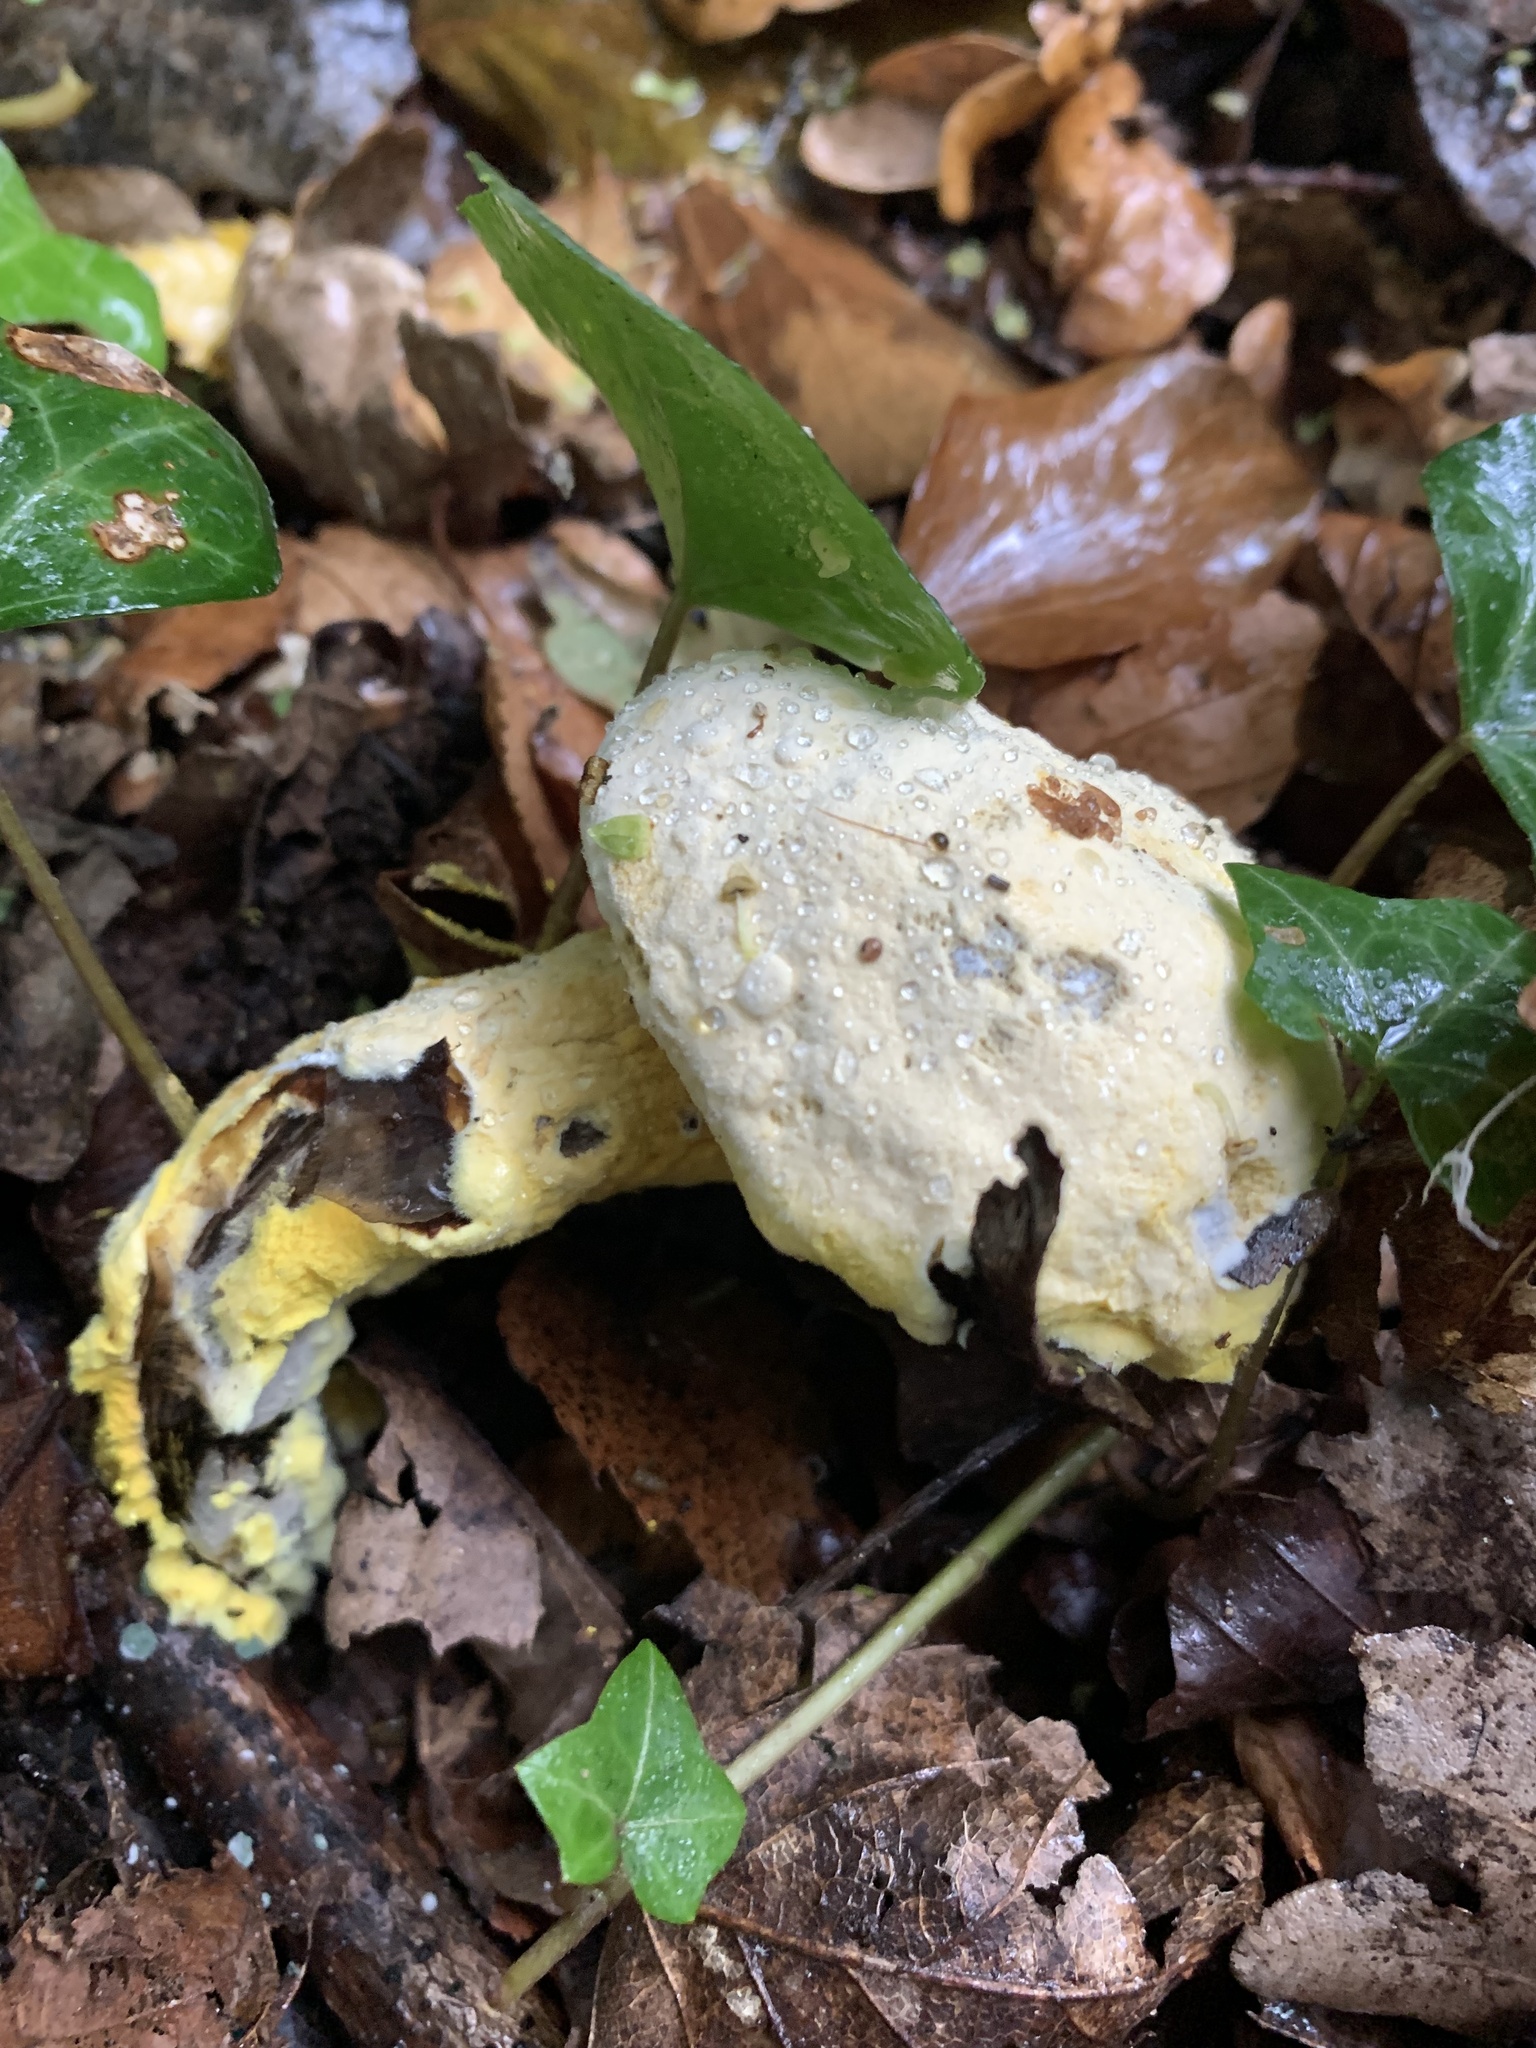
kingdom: Fungi
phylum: Ascomycota
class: Sordariomycetes
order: Hypocreales
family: Hypocreaceae
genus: Hypomyces
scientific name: Hypomyces chrysospermus
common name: Bolete mould
